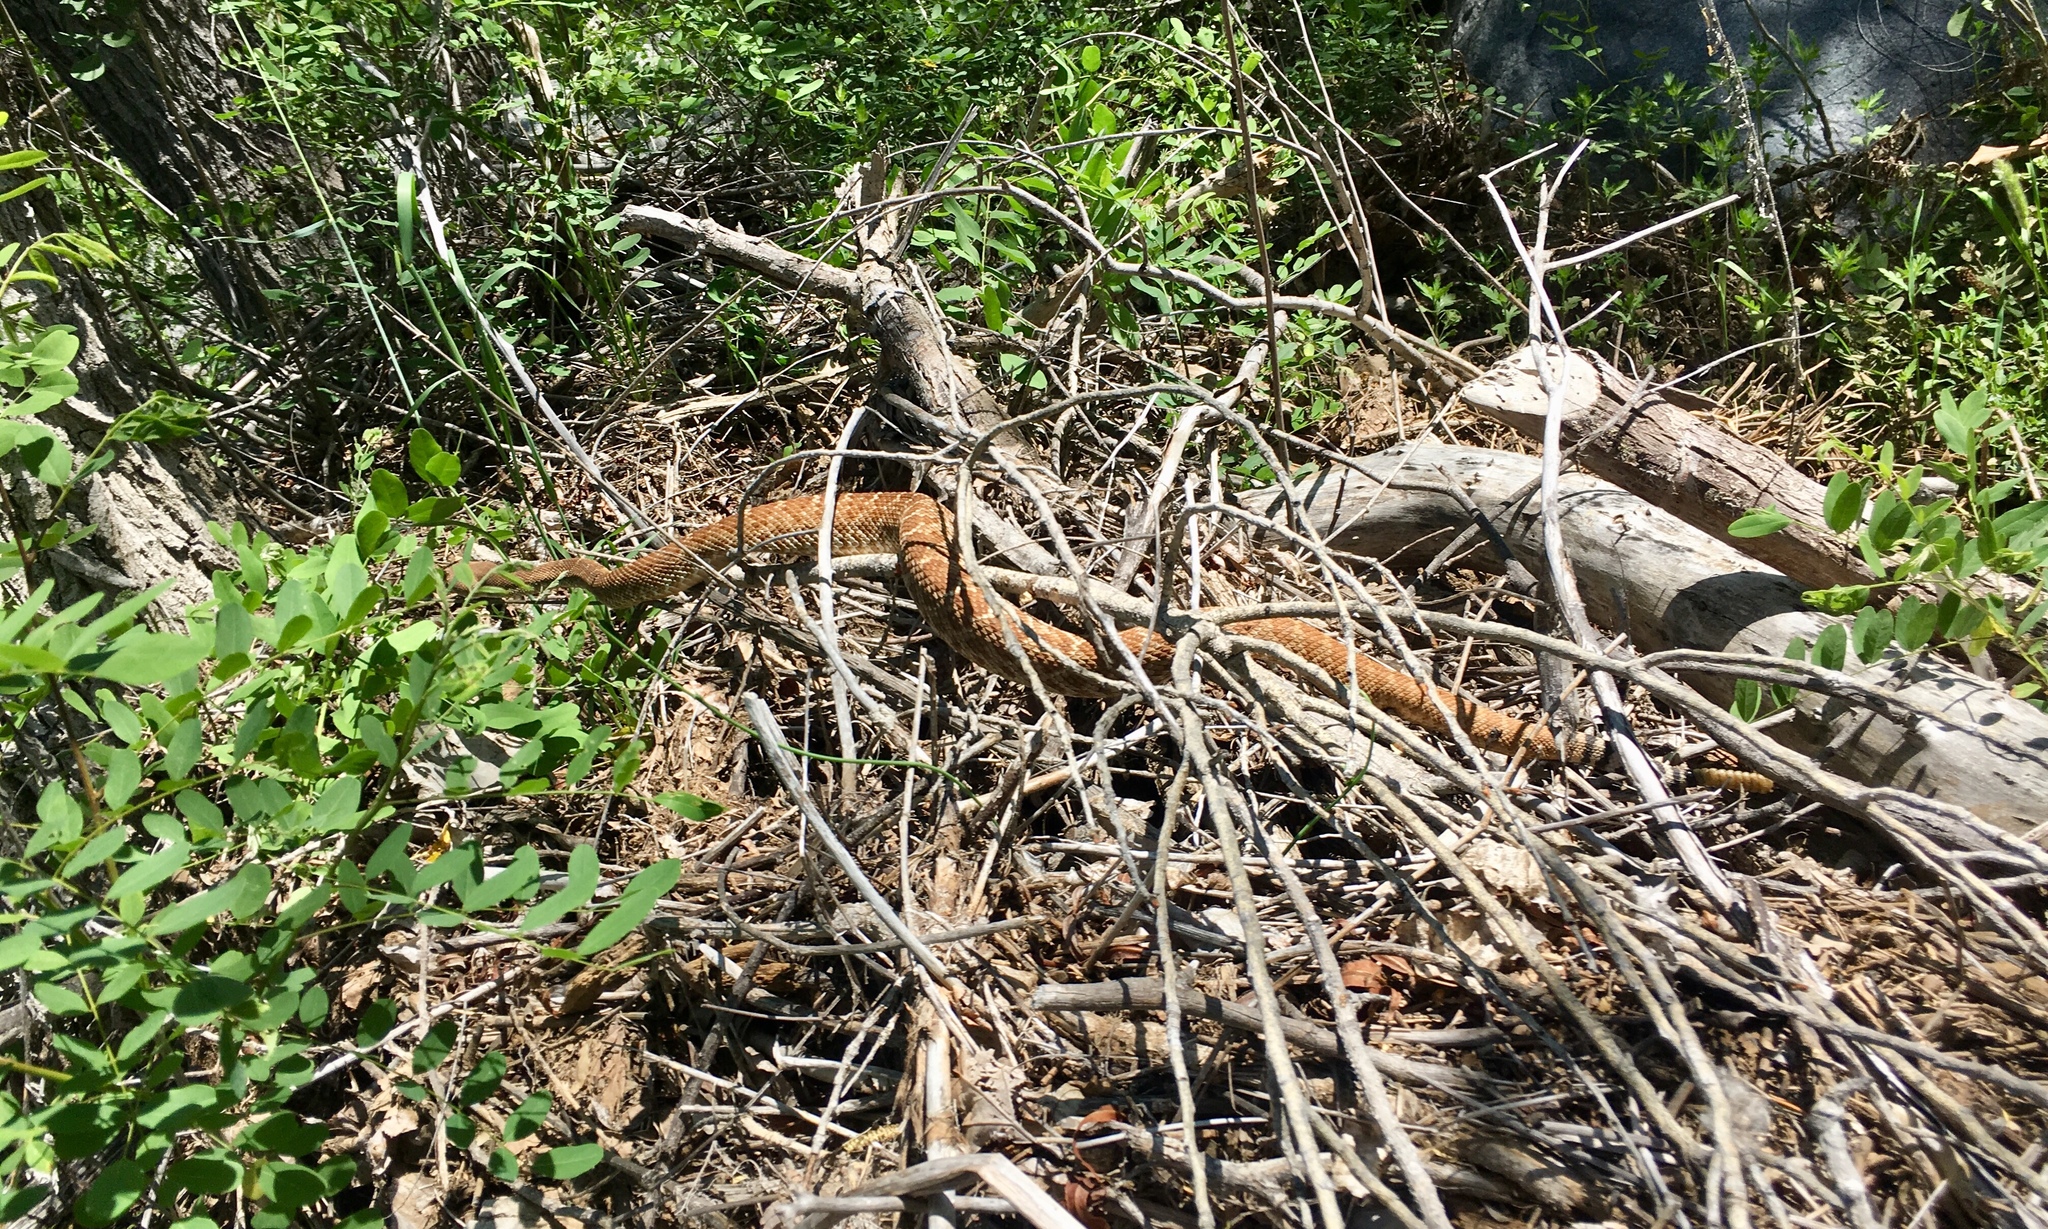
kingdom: Animalia
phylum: Chordata
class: Squamata
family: Viperidae
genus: Crotalus
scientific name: Crotalus ruber
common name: Red diamond rattlesnake
